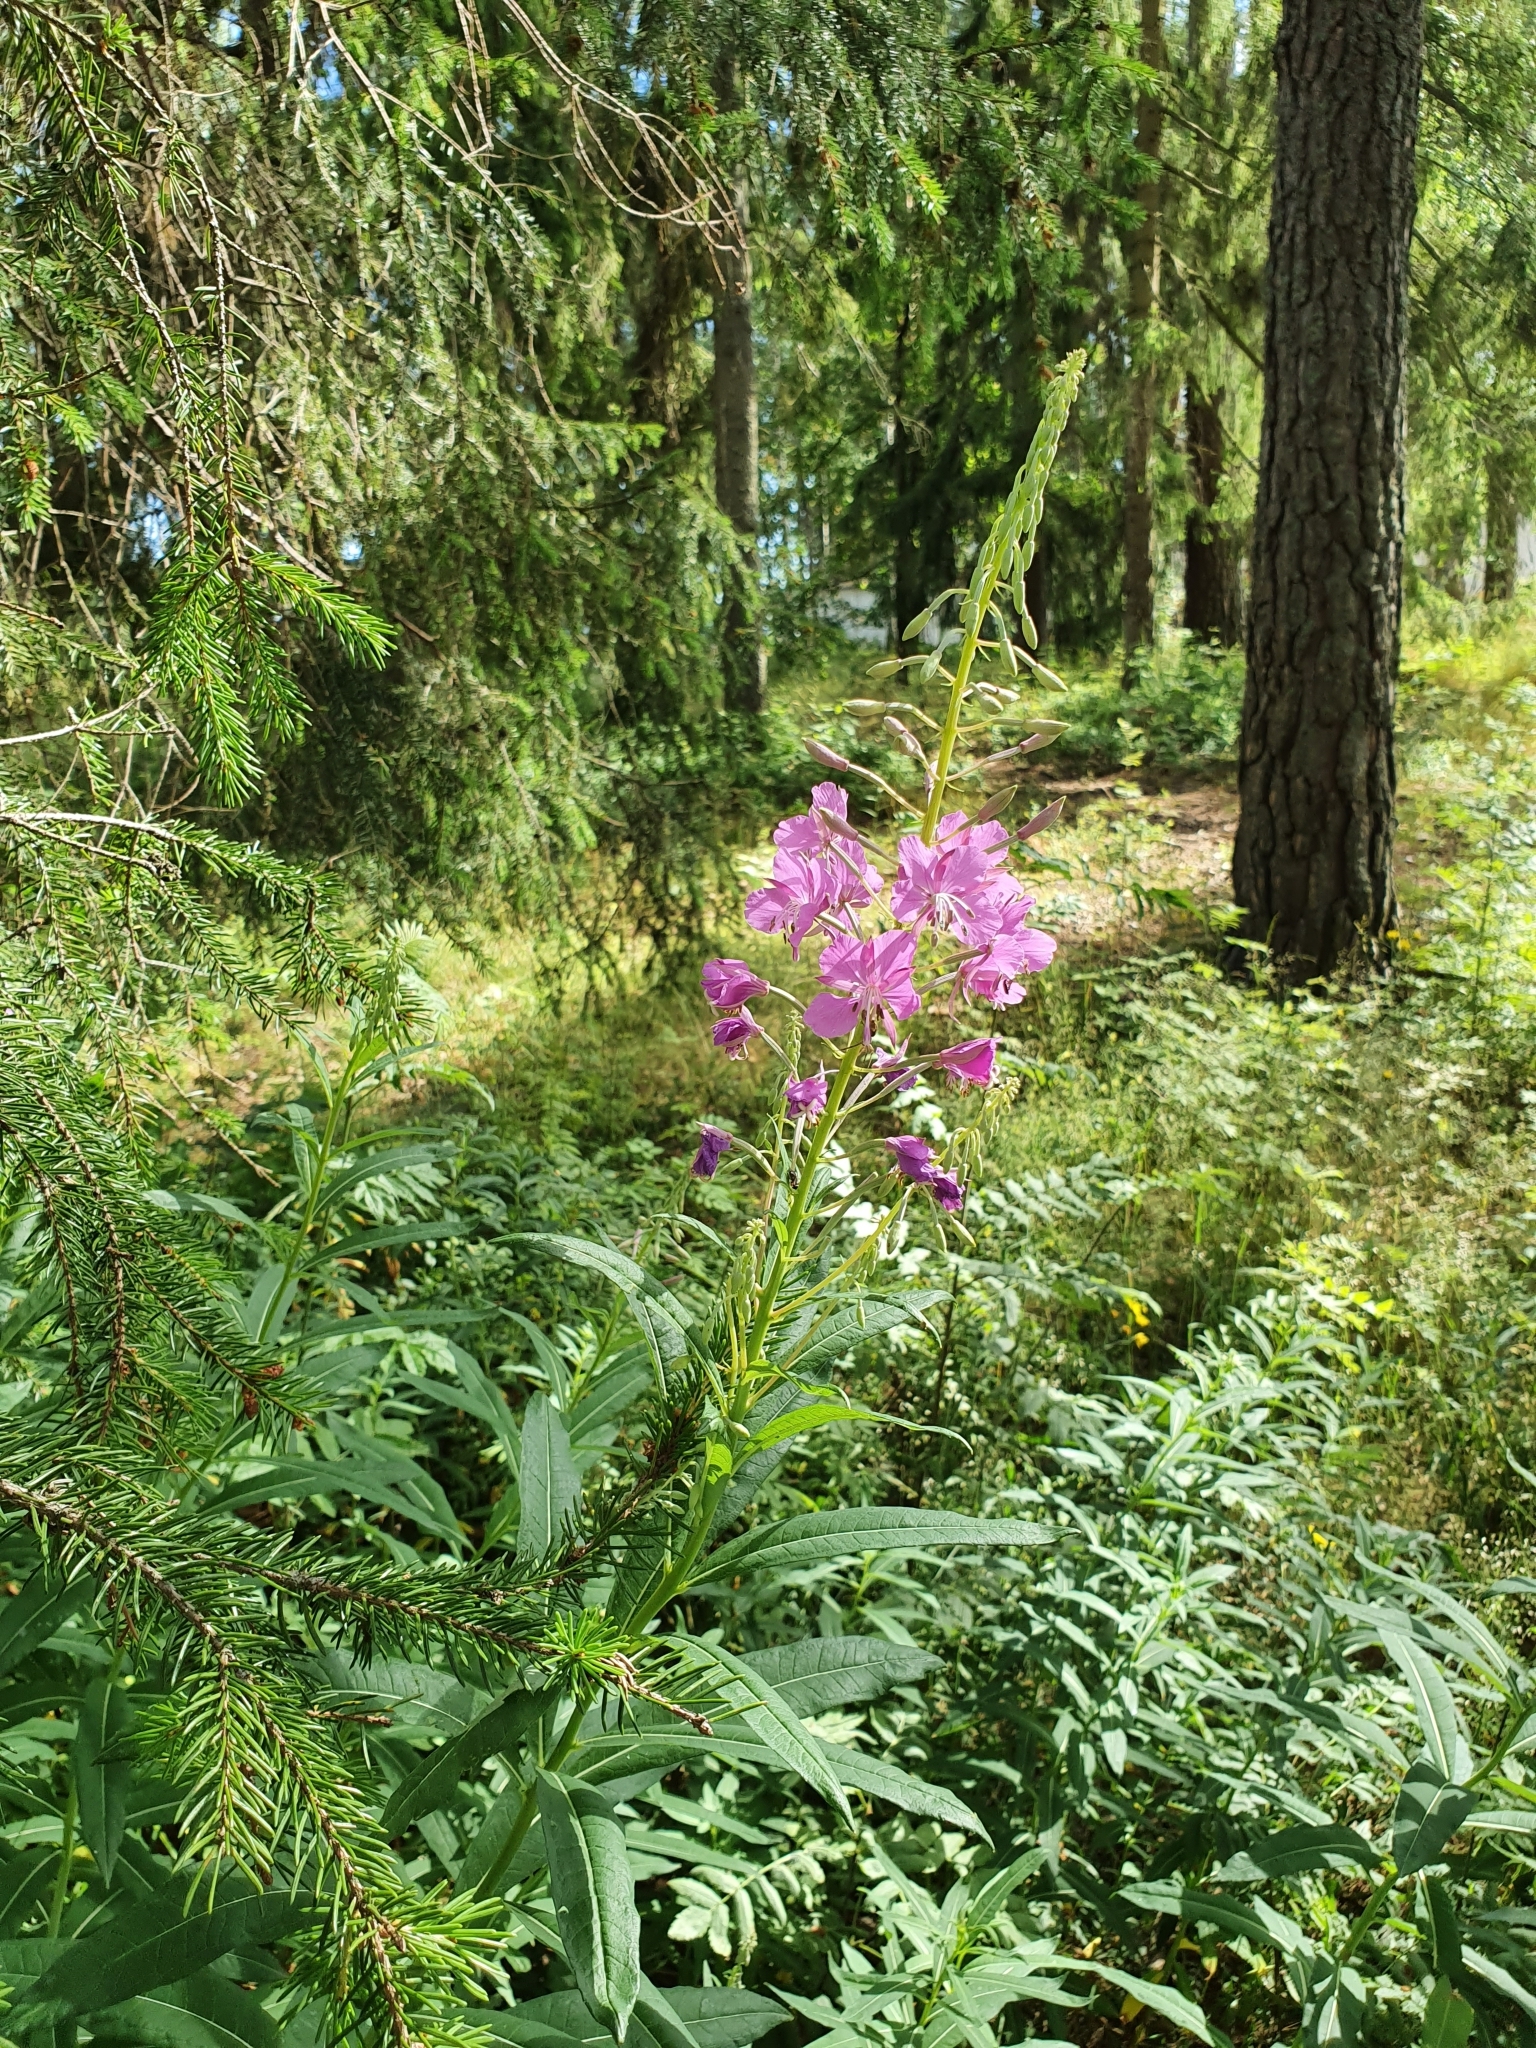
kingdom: Plantae
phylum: Tracheophyta
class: Magnoliopsida
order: Myrtales
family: Onagraceae
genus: Chamaenerion
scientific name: Chamaenerion angustifolium
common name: Fireweed
